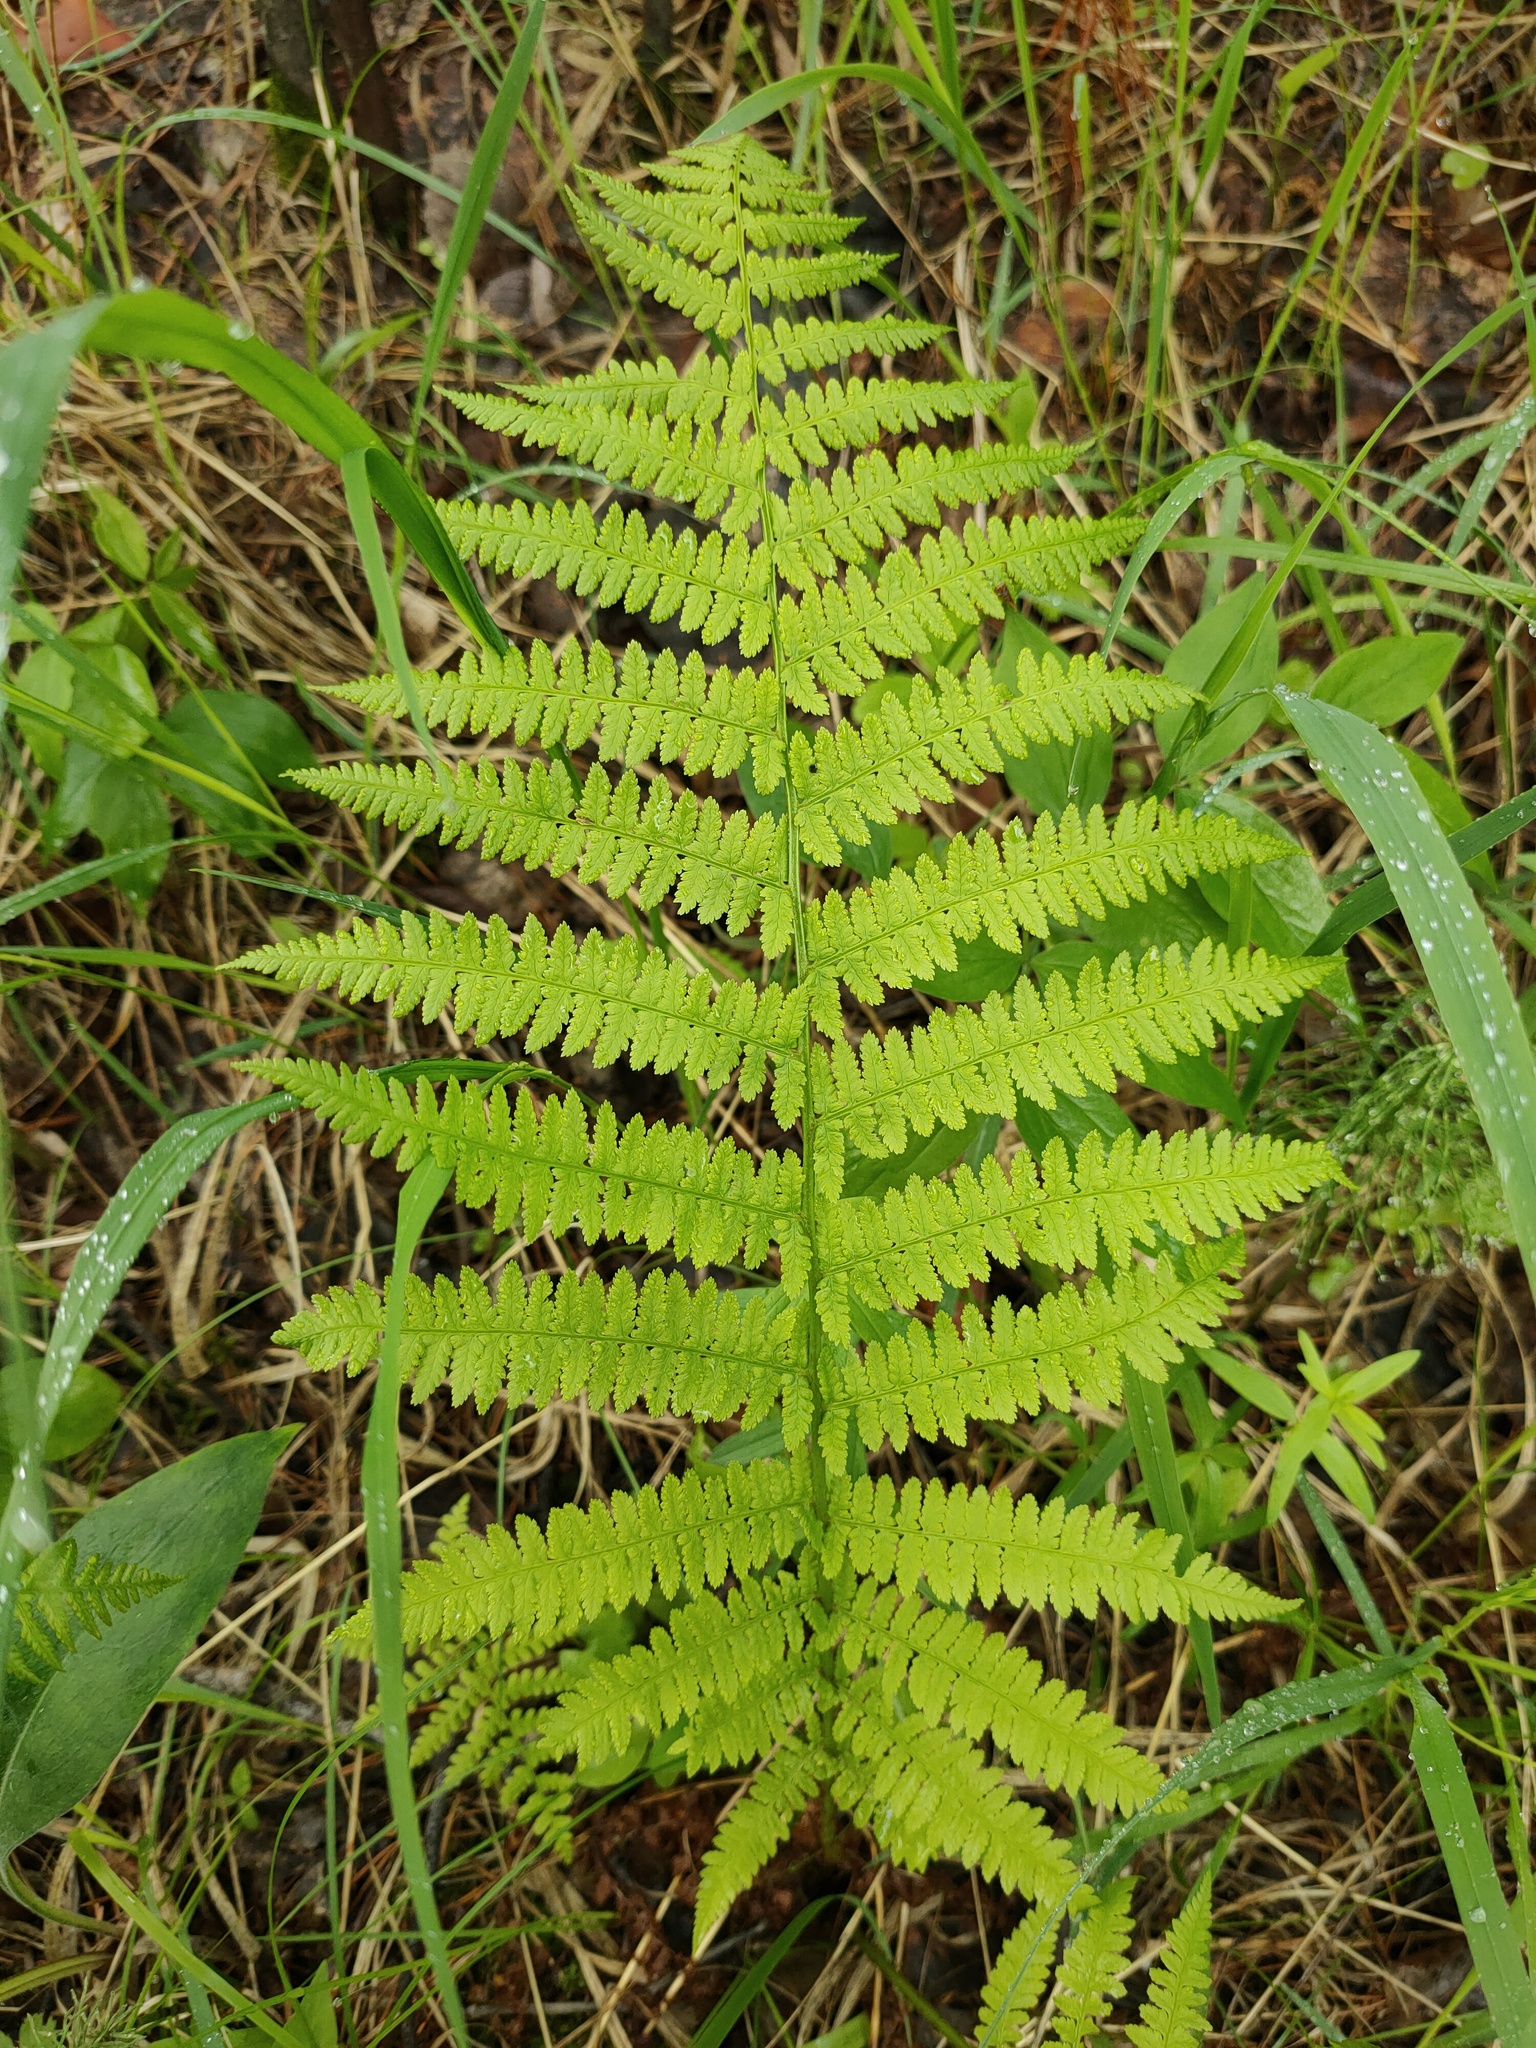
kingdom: Plantae
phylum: Tracheophyta
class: Polypodiopsida
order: Polypodiales
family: Athyriaceae
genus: Athyrium
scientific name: Athyrium filix-femina
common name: Lady fern
